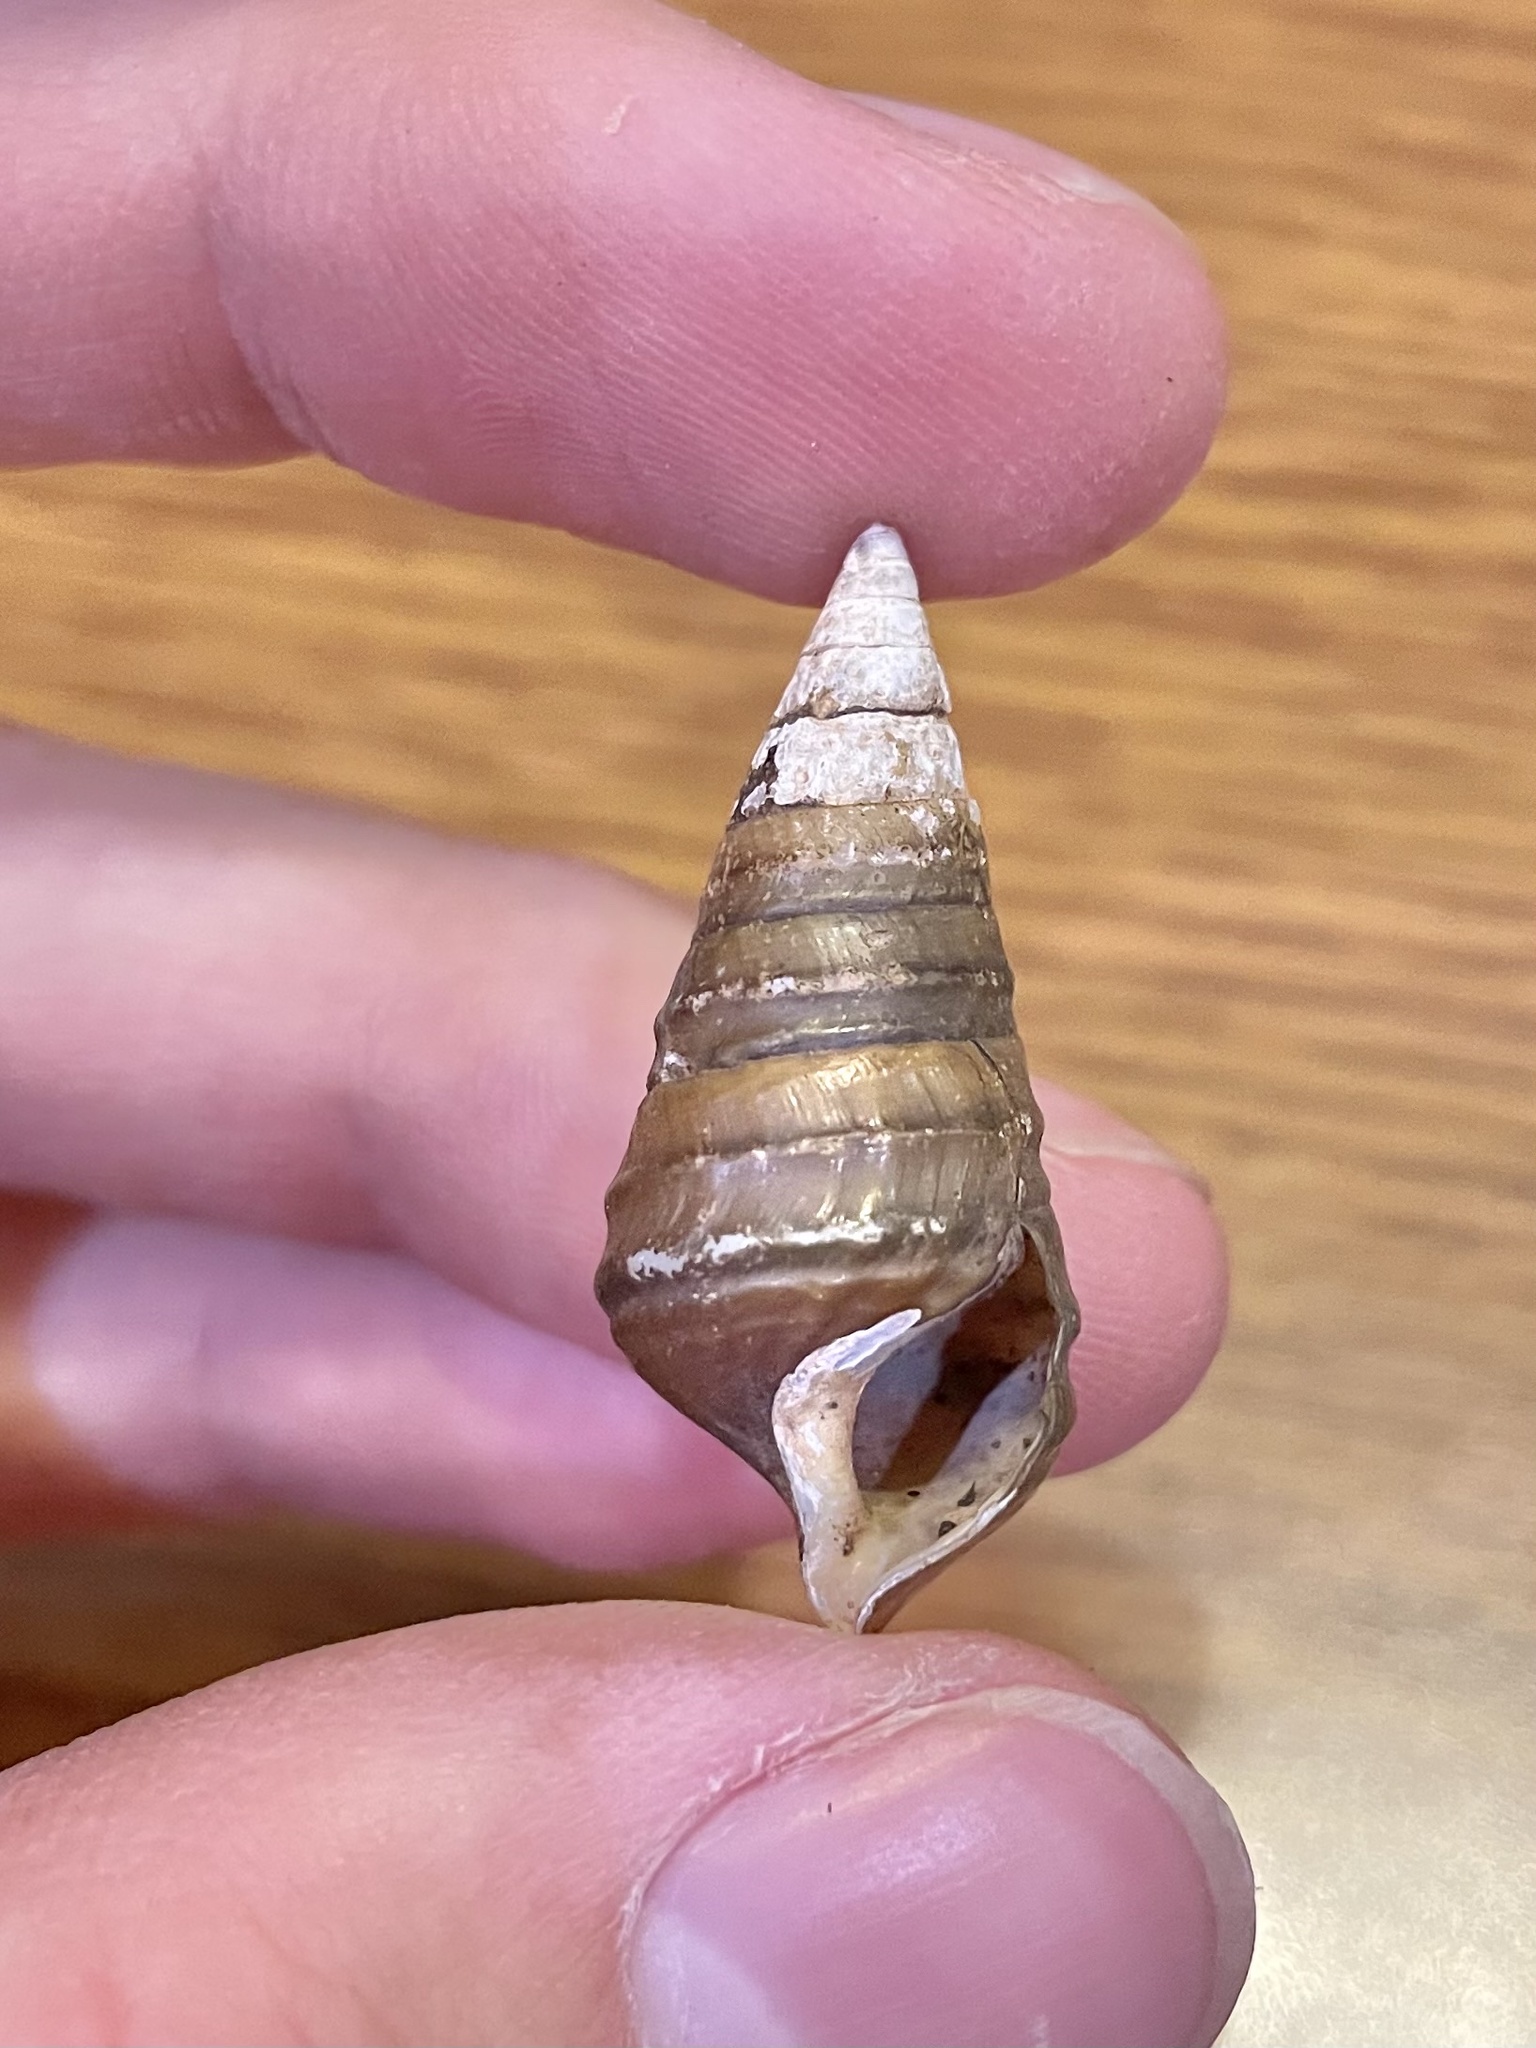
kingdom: Animalia
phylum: Mollusca
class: Gastropoda
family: Pleuroceridae
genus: Pleurocera
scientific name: Pleurocera nobilis
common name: Noble hornsnail
